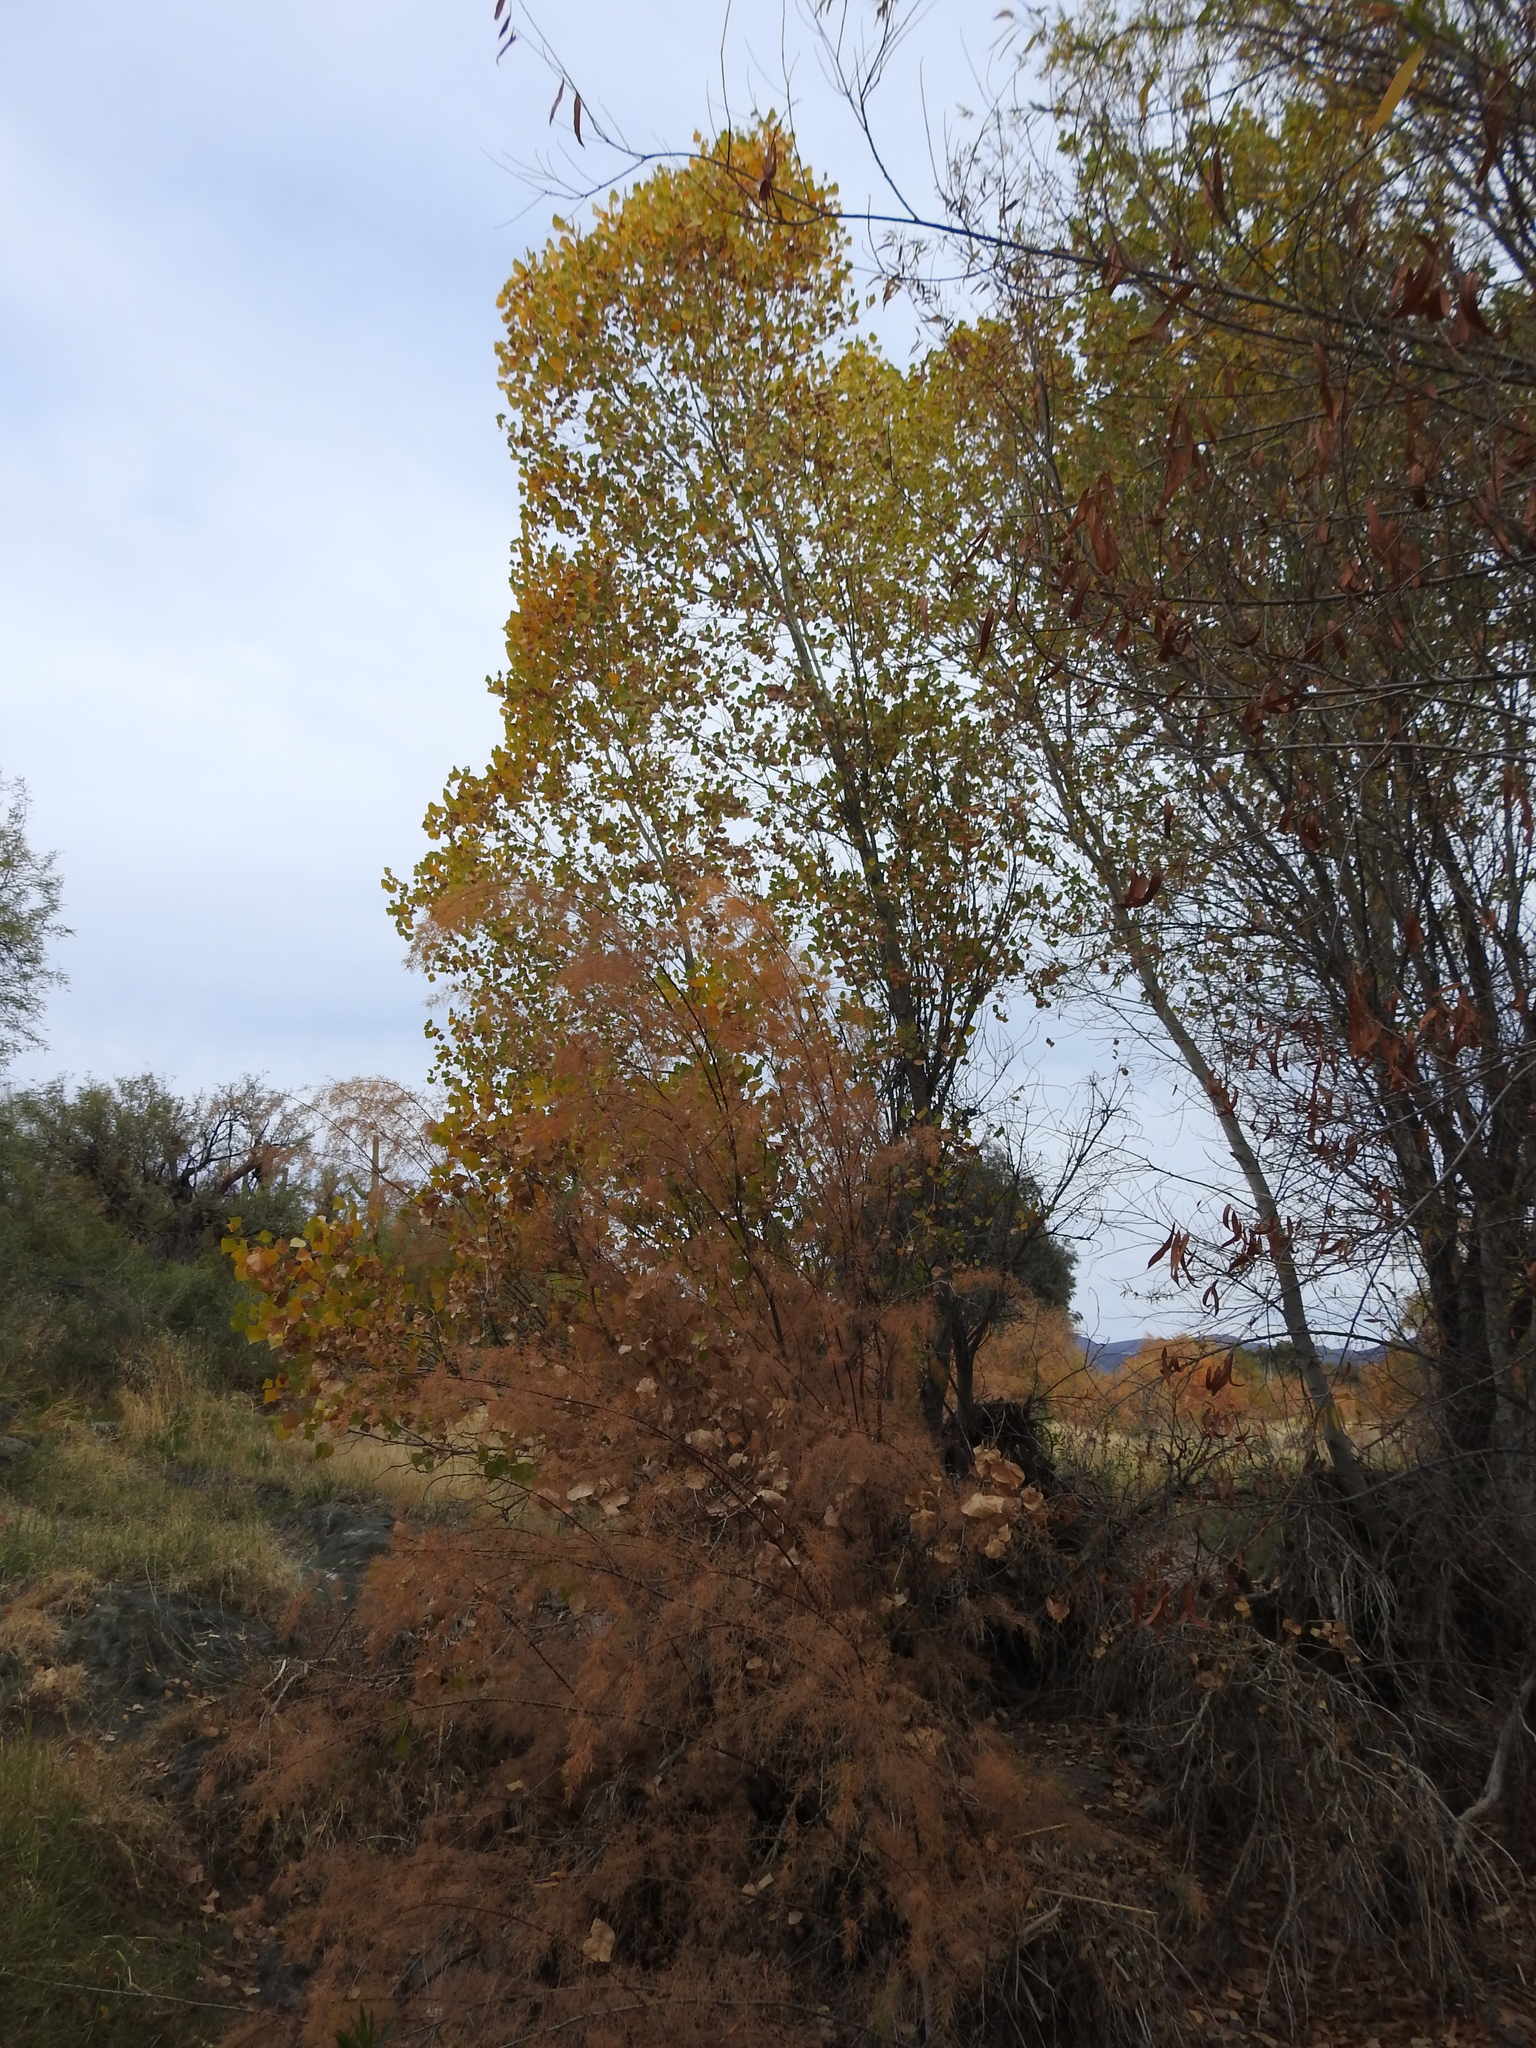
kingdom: Plantae
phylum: Tracheophyta
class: Magnoliopsida
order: Malpighiales
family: Salicaceae
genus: Populus
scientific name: Populus fremontii
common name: Fremont's cottonwood
